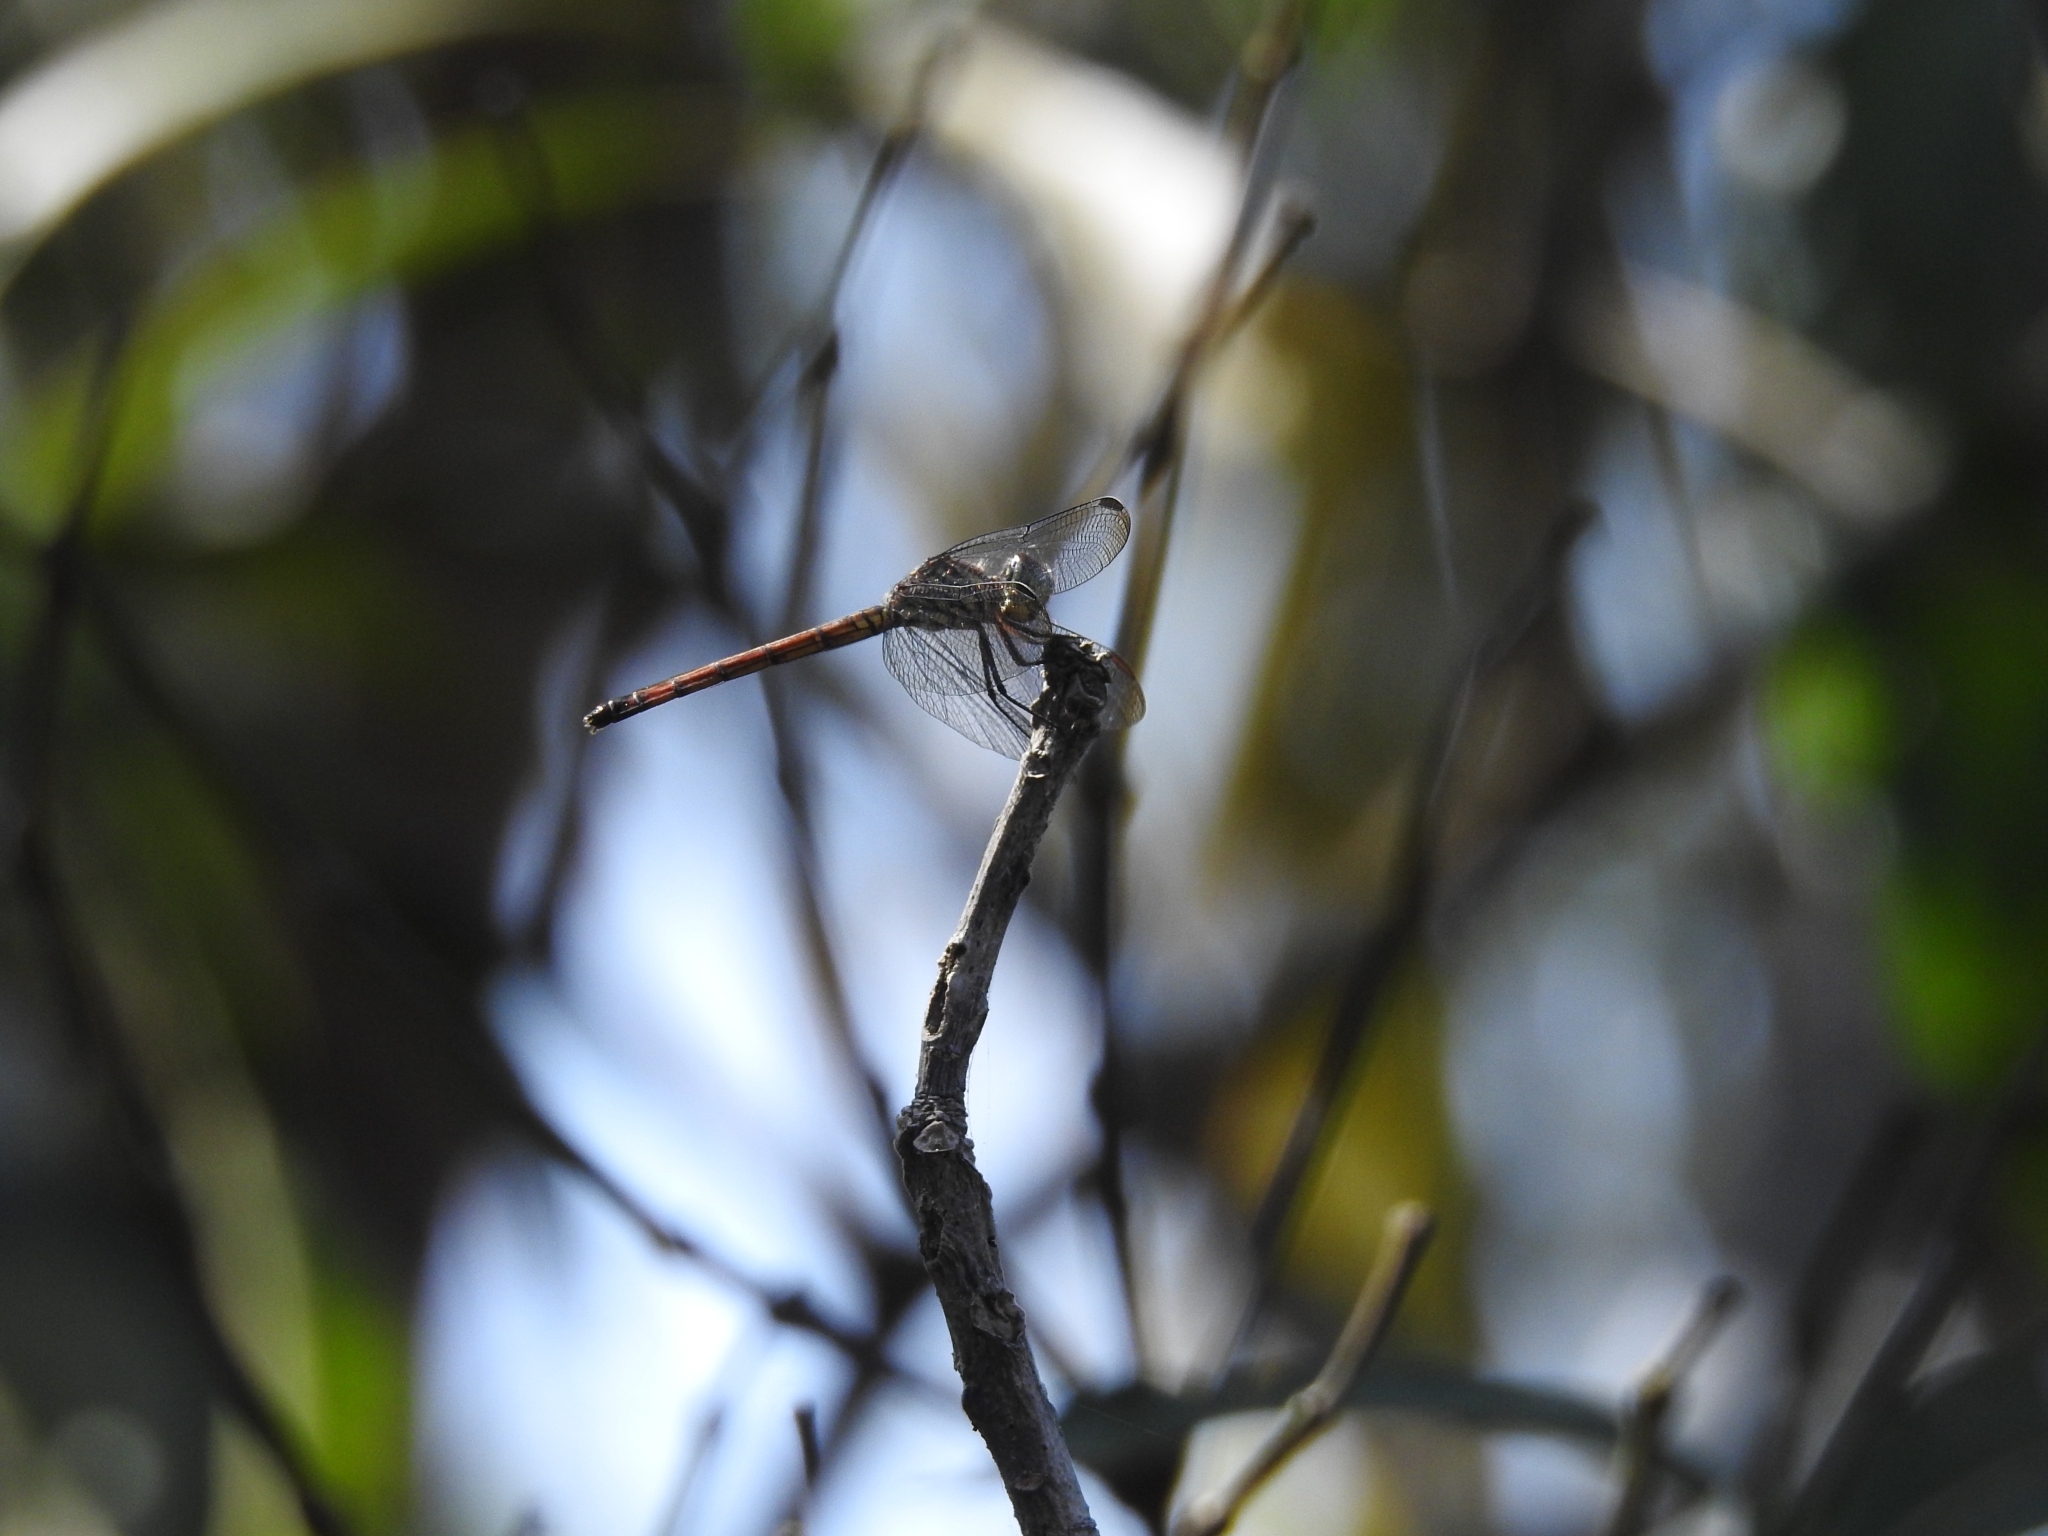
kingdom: Animalia
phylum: Arthropoda
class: Insecta
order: Odonata
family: Libellulidae
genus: Lathrecista
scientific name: Lathrecista asiatica
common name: Scarlet grenadier
